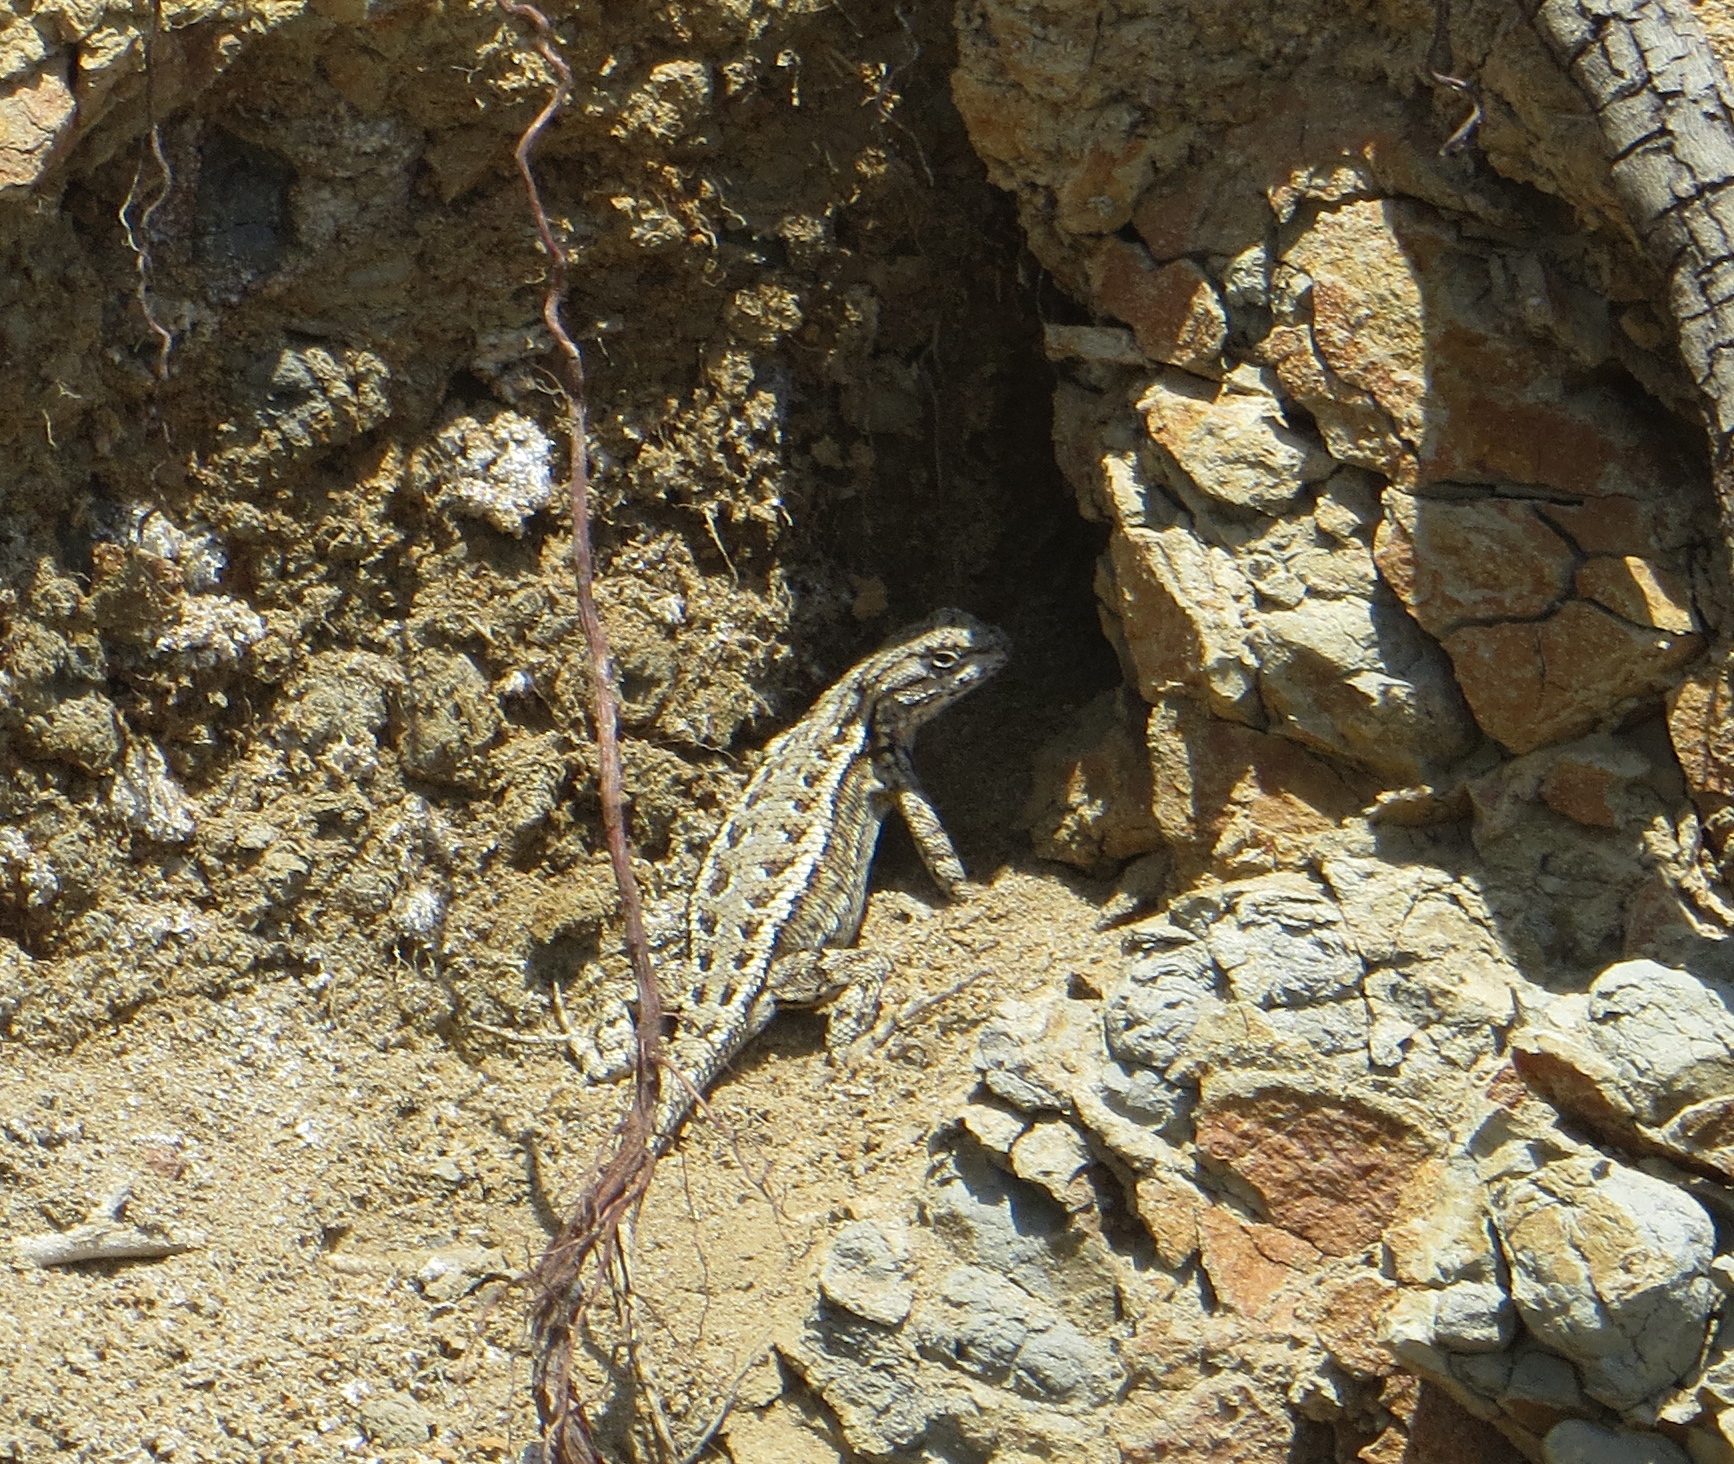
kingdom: Animalia
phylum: Chordata
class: Squamata
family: Phrynosomatidae
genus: Sceloporus
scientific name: Sceloporus occidentalis
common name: Western fence lizard
